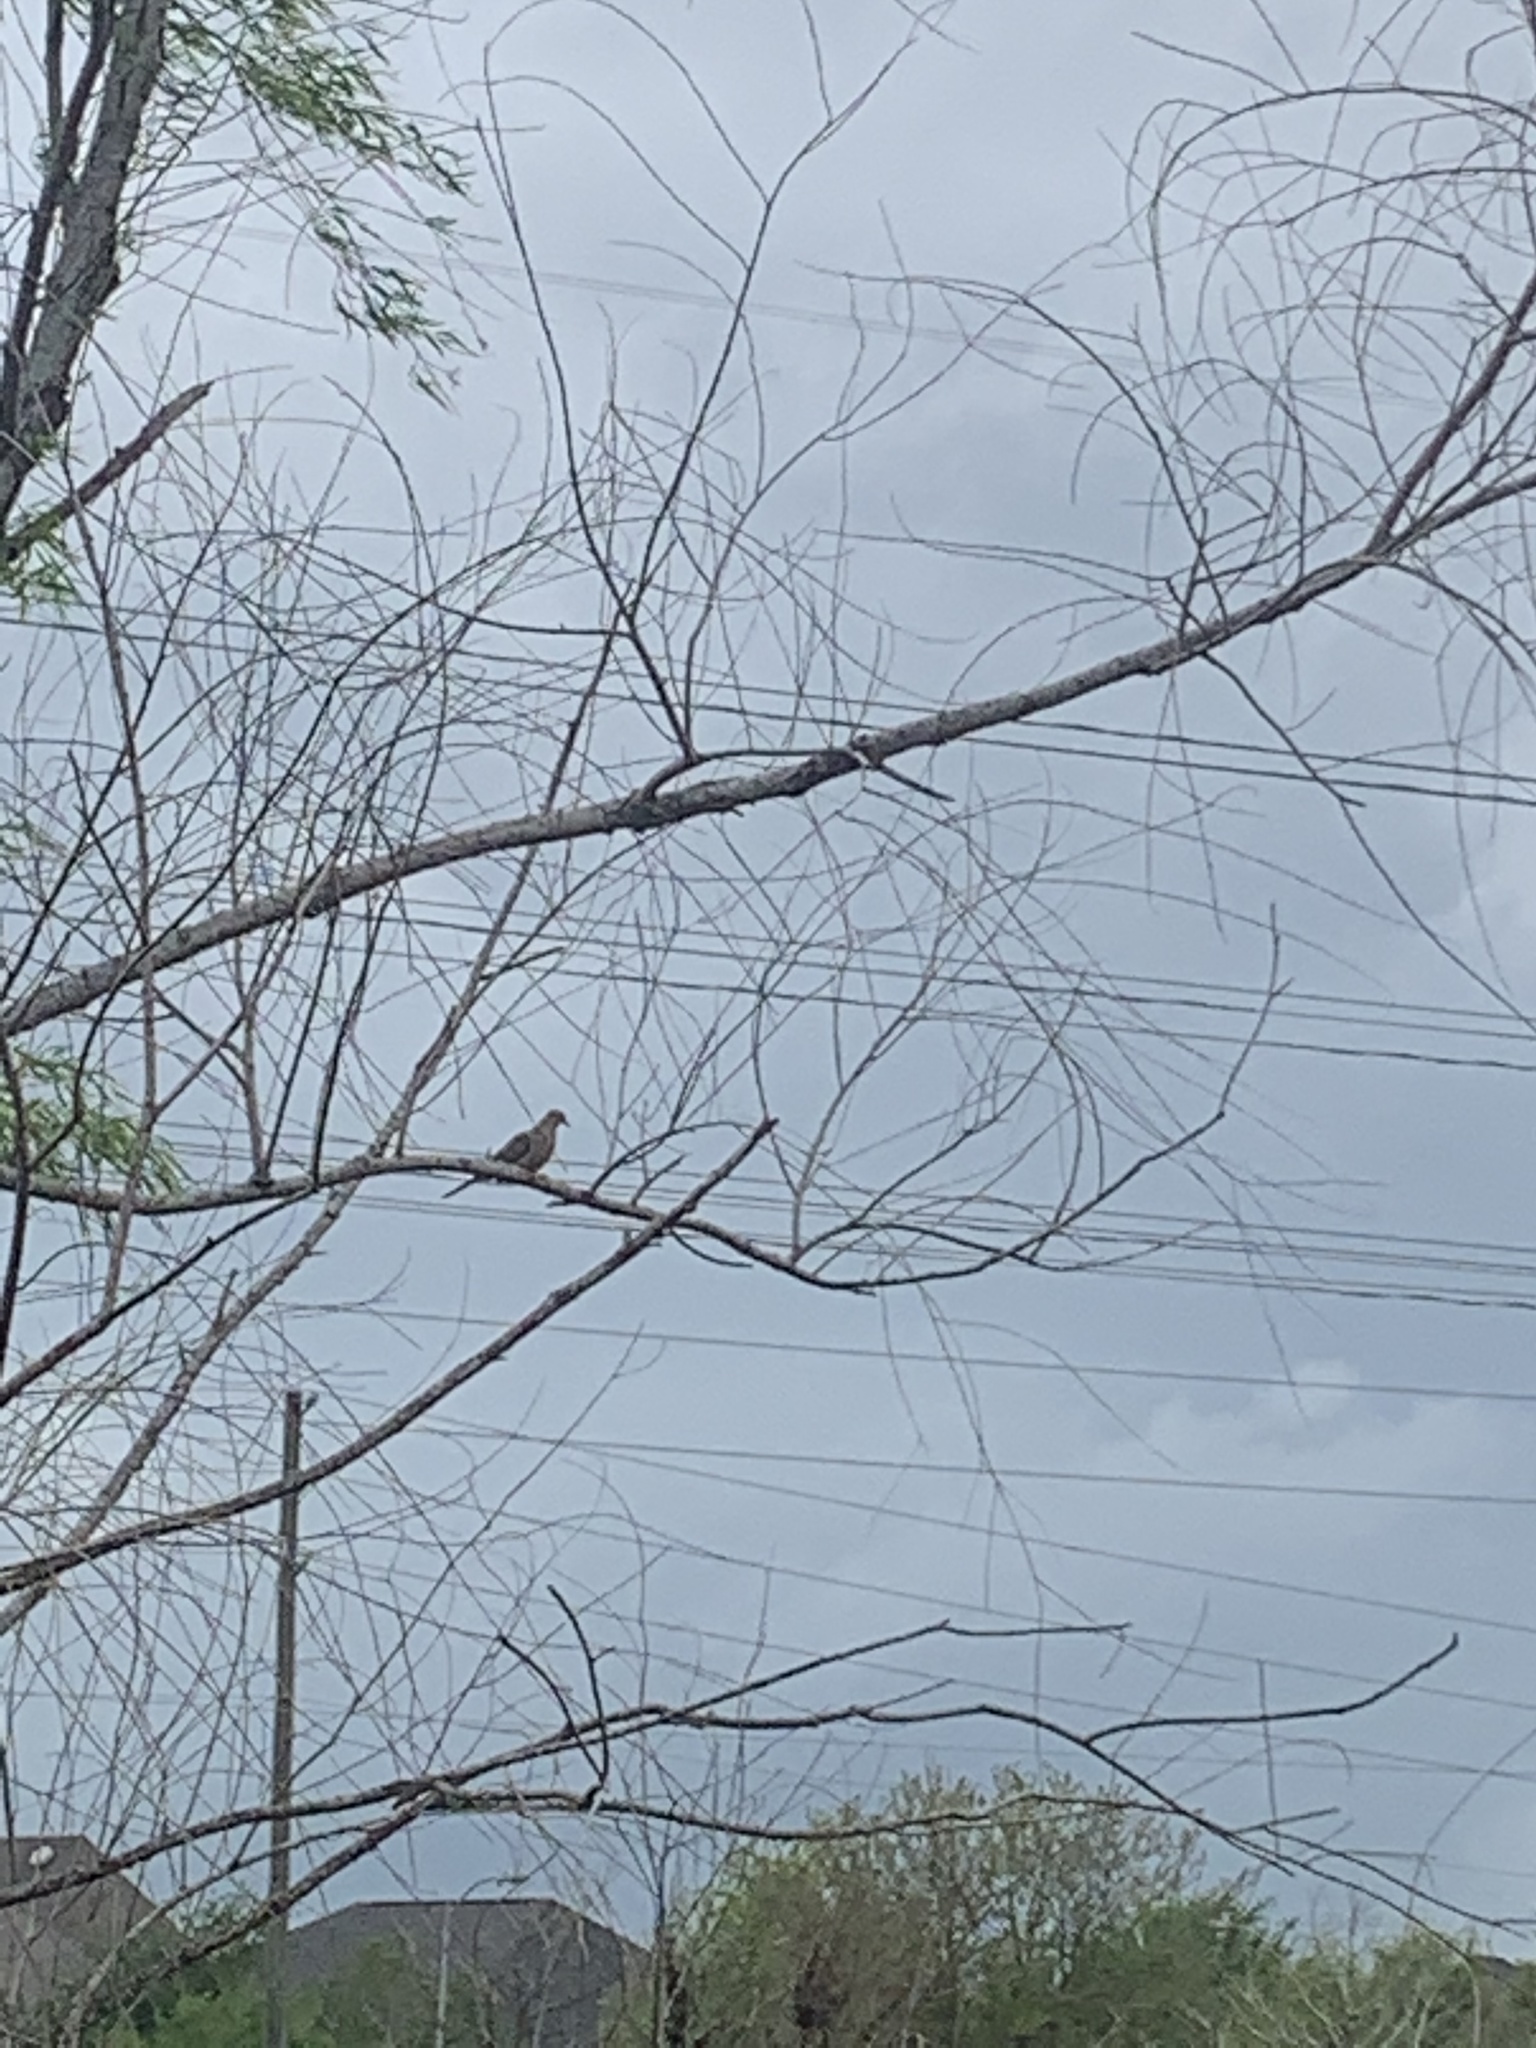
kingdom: Animalia
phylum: Chordata
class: Aves
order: Columbiformes
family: Columbidae
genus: Zenaida
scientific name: Zenaida macroura
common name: Mourning dove
